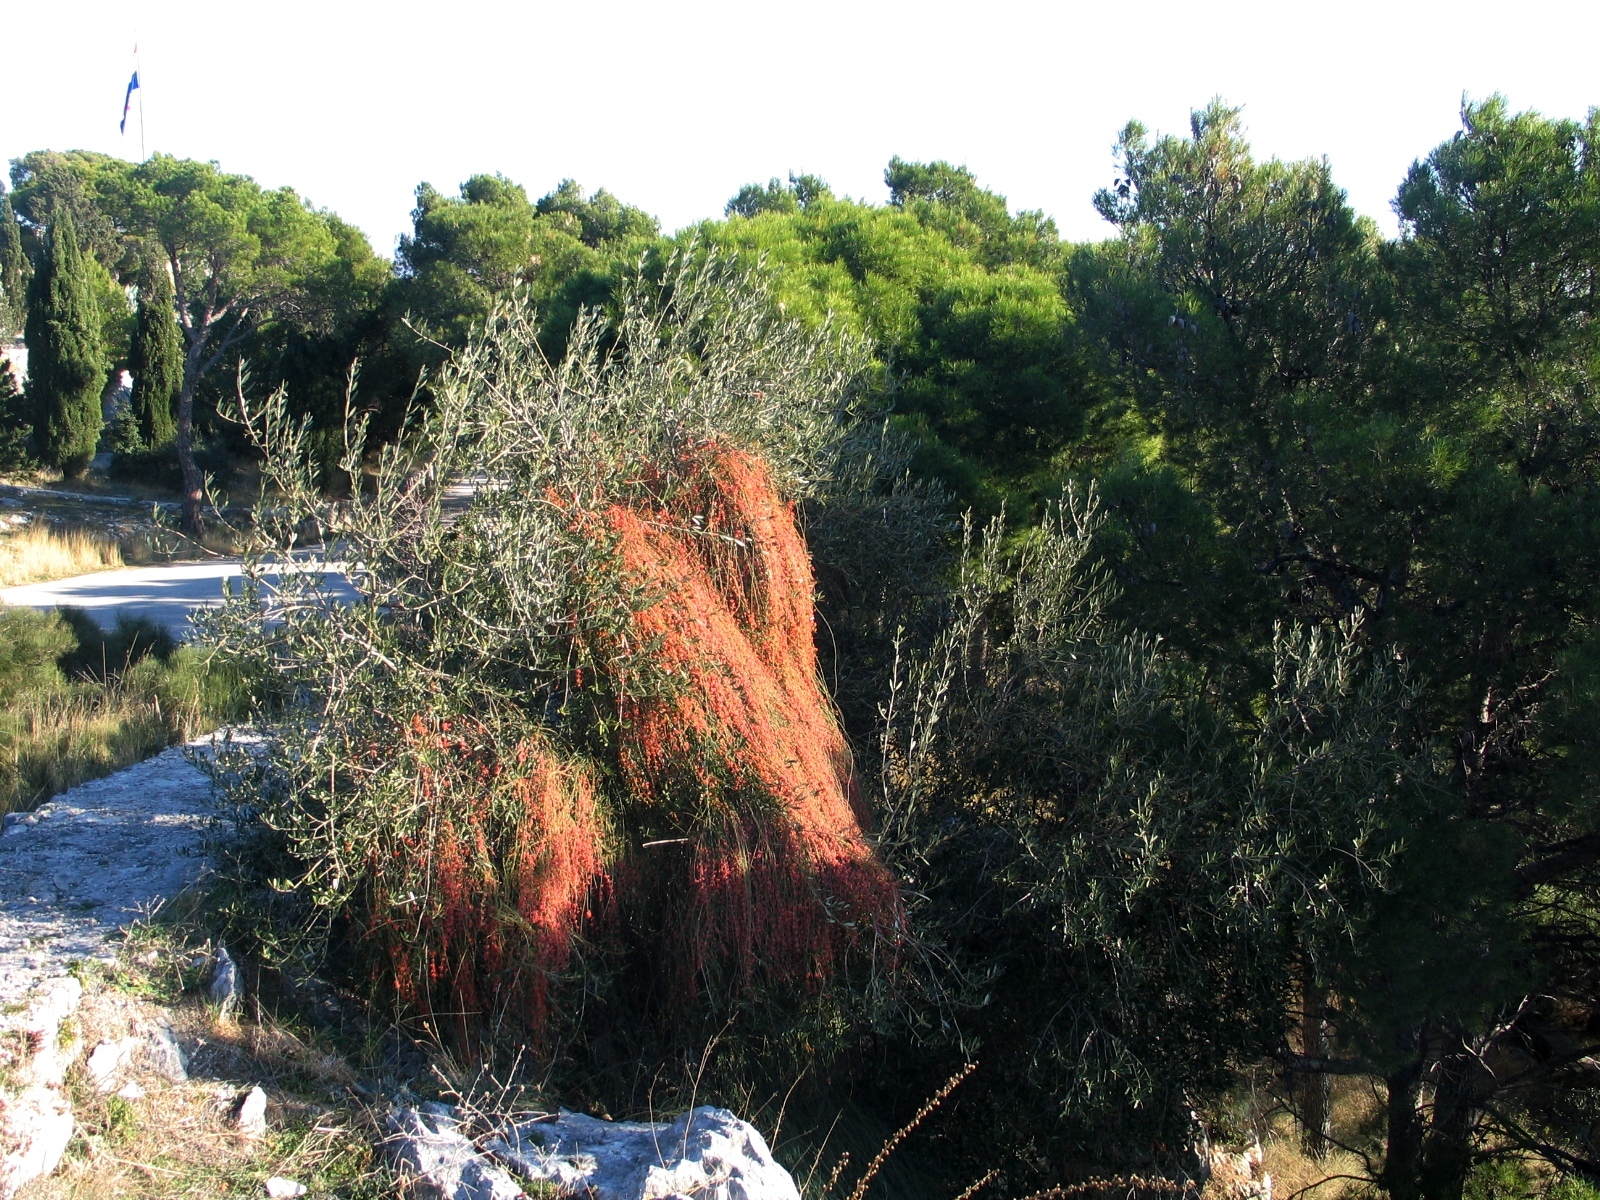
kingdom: Plantae
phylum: Tracheophyta
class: Gnetopsida
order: Ephedrales
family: Ephedraceae
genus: Ephedra
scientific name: Ephedra foeminea
